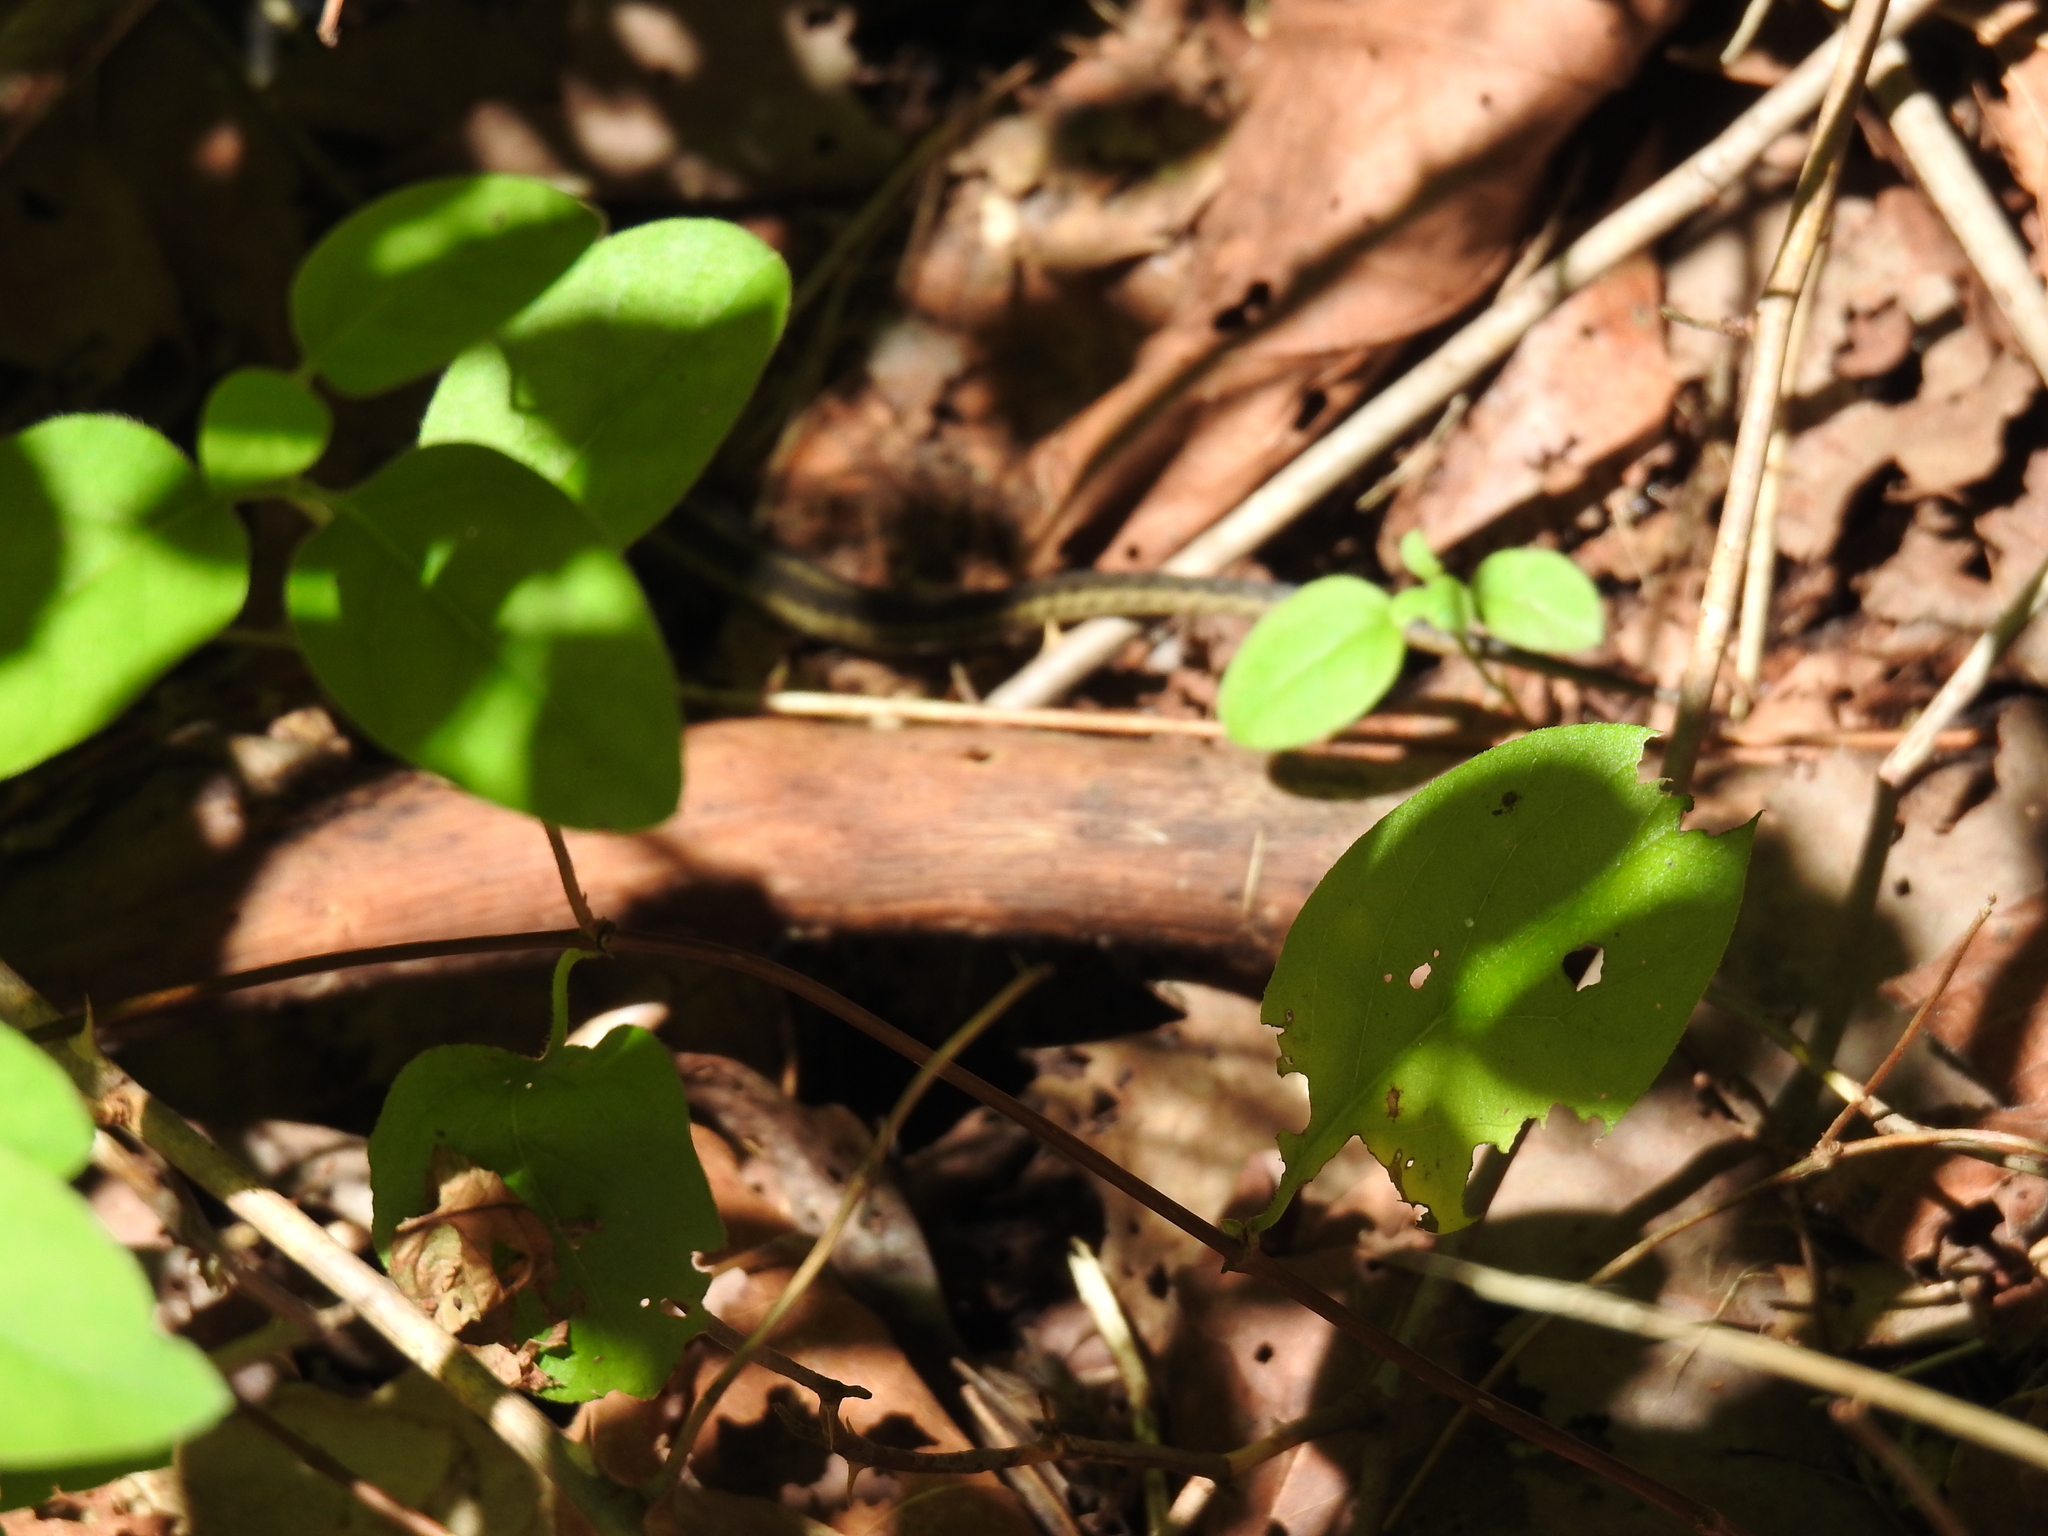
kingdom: Animalia
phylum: Chordata
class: Squamata
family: Colubridae
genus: Thamnophis
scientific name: Thamnophis sirtalis
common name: Common garter snake
